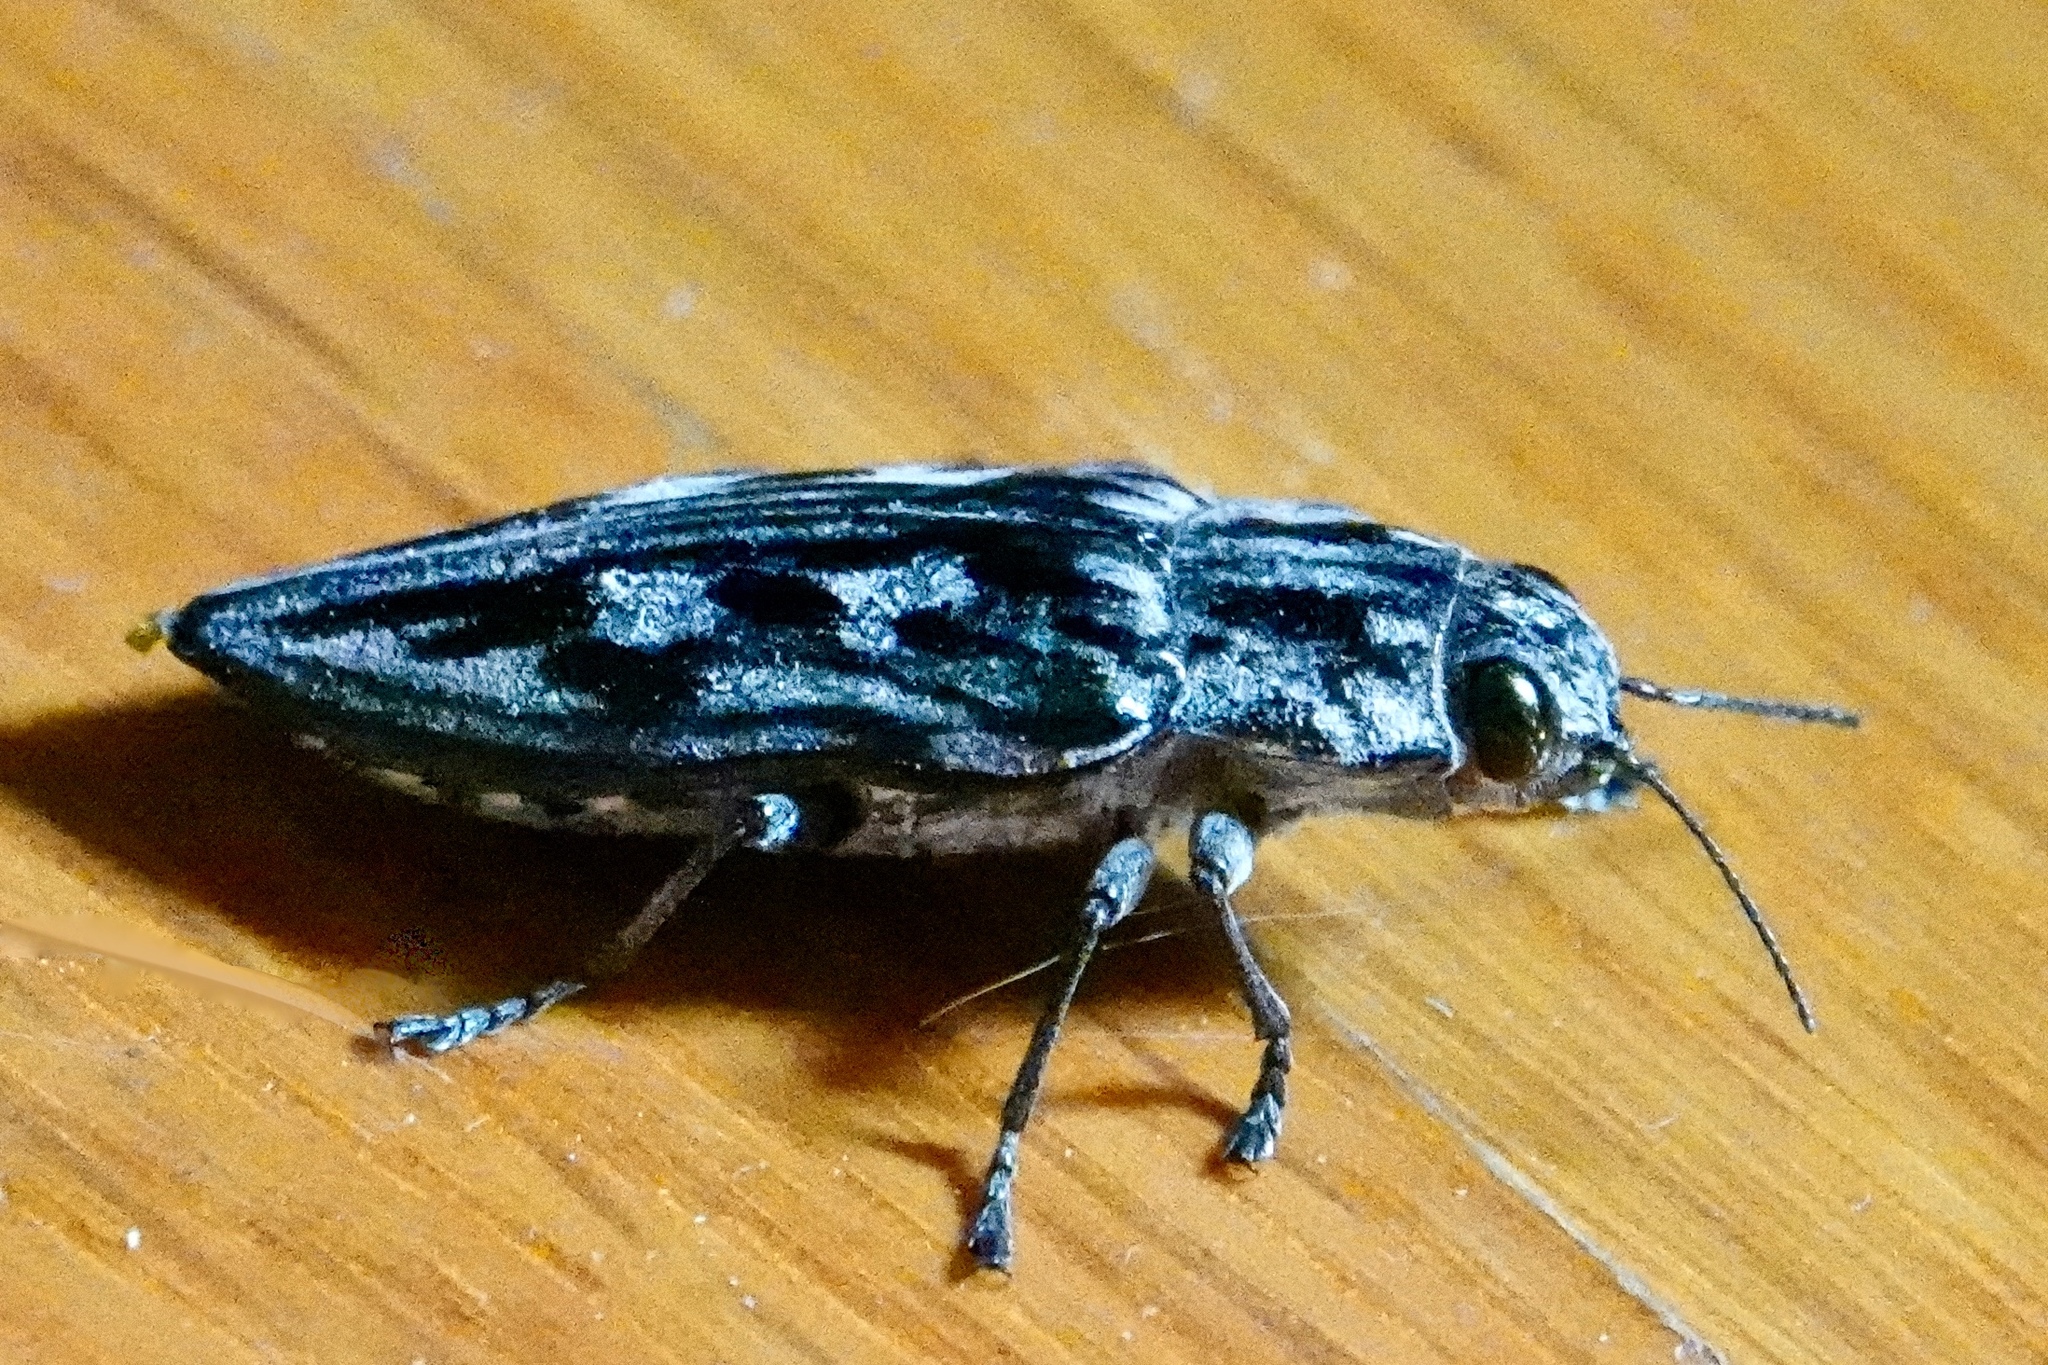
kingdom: Animalia
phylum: Arthropoda
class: Insecta
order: Coleoptera
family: Buprestidae
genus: Chalcophora
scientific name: Chalcophora virginiensis
